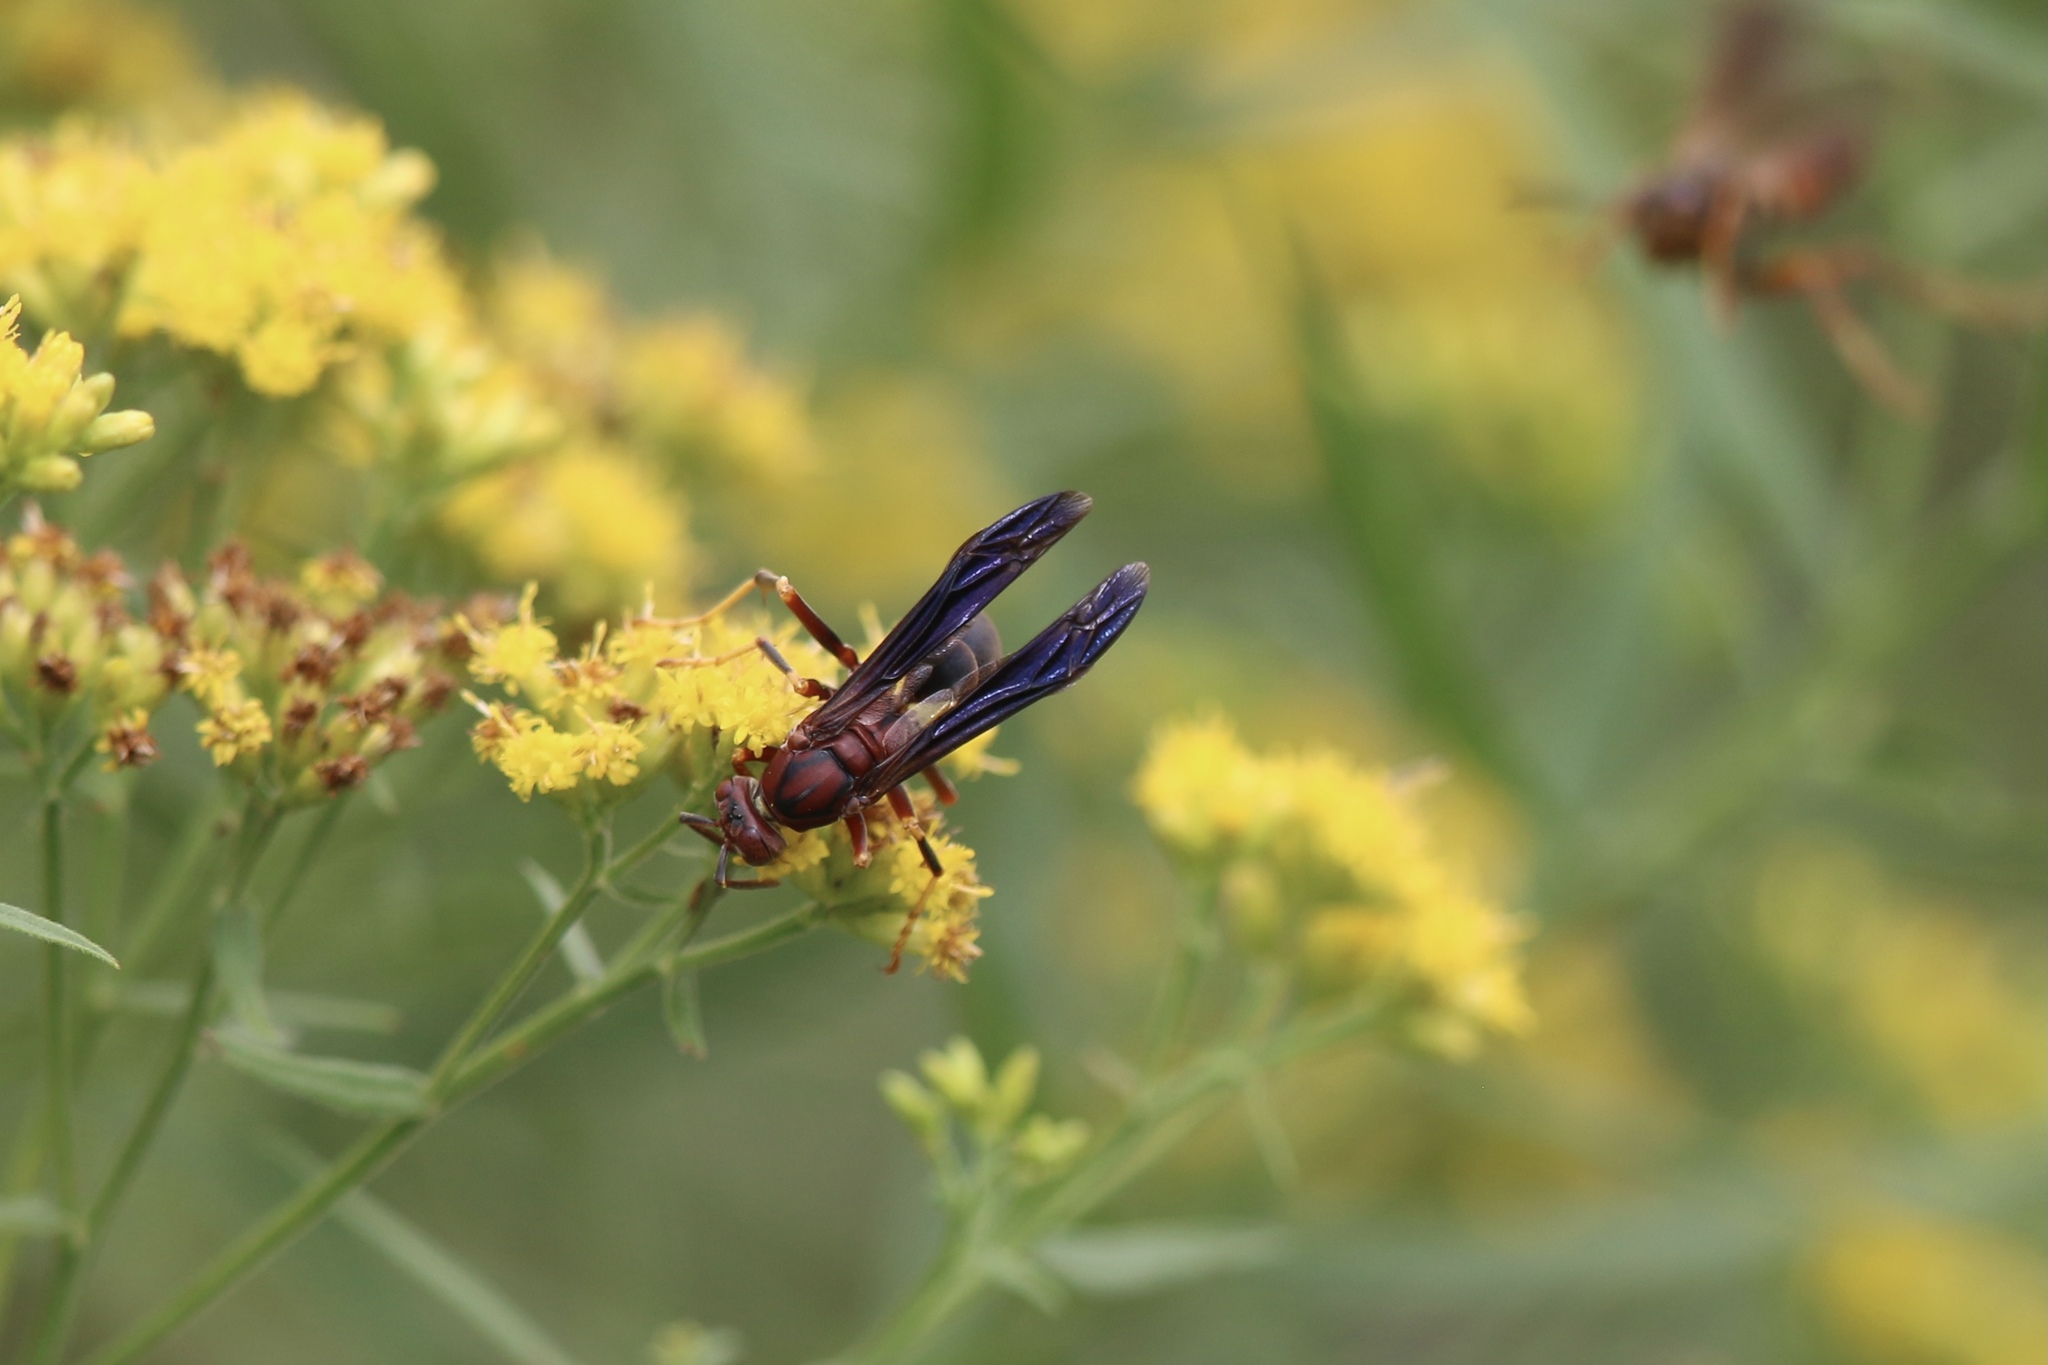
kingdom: Animalia
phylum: Arthropoda
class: Insecta
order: Hymenoptera
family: Eumenidae
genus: Polistes
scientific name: Polistes metricus
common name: Metric paper wasp
